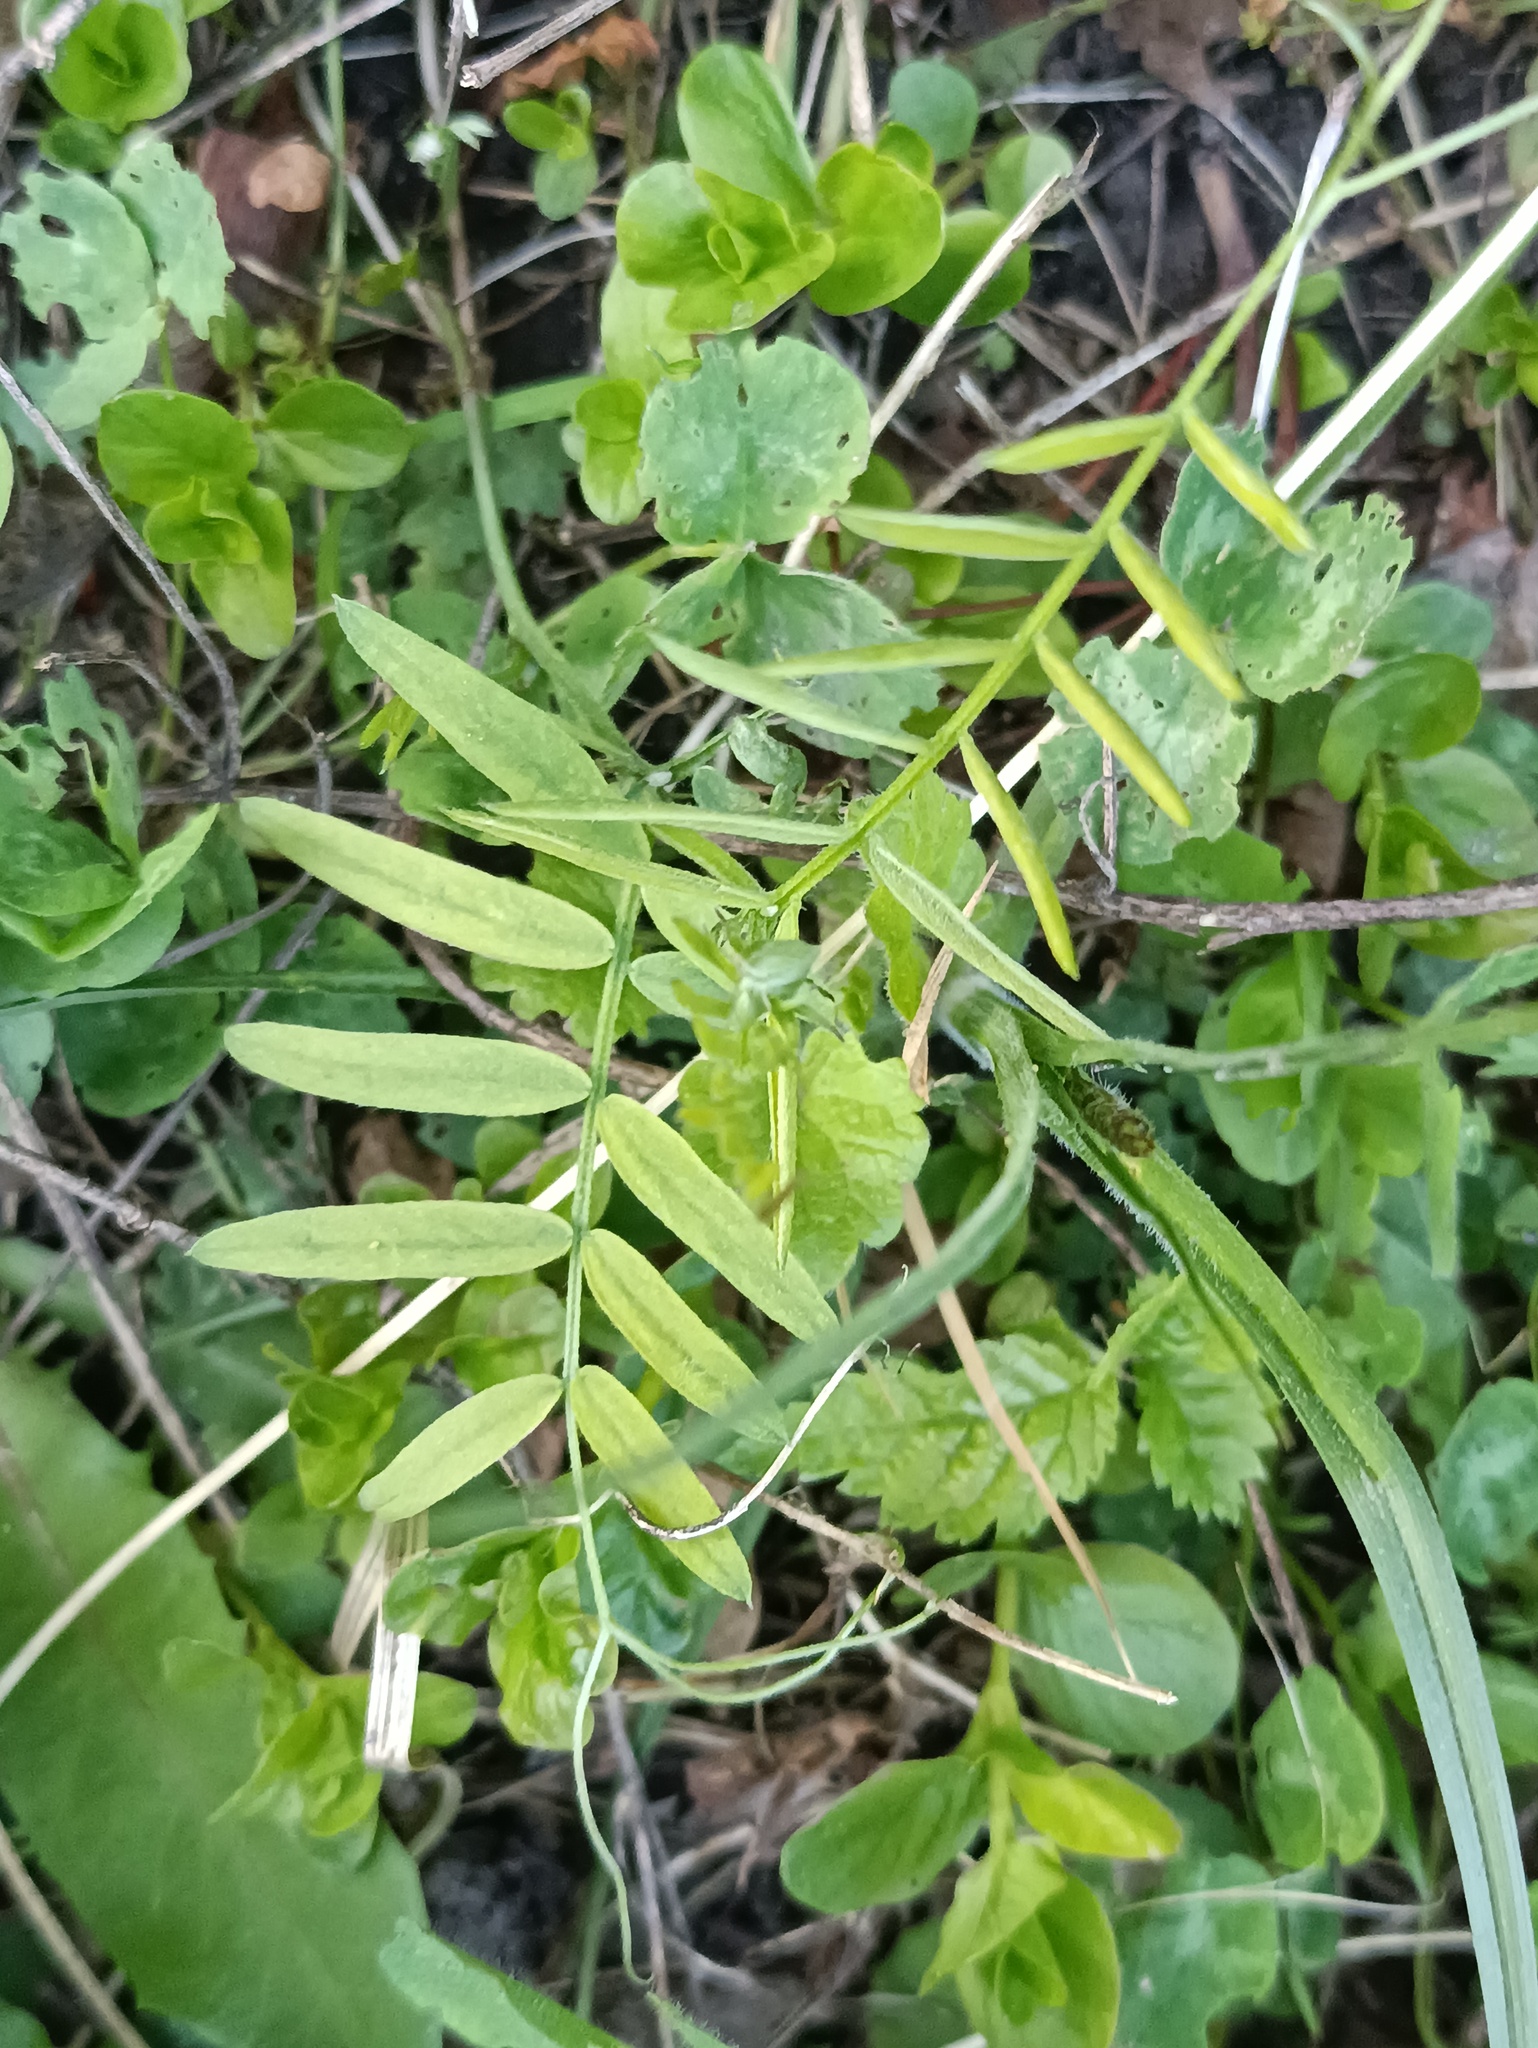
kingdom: Plantae
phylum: Tracheophyta
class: Magnoliopsida
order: Fabales
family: Fabaceae
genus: Vicia
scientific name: Vicia cracca
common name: Bird vetch
